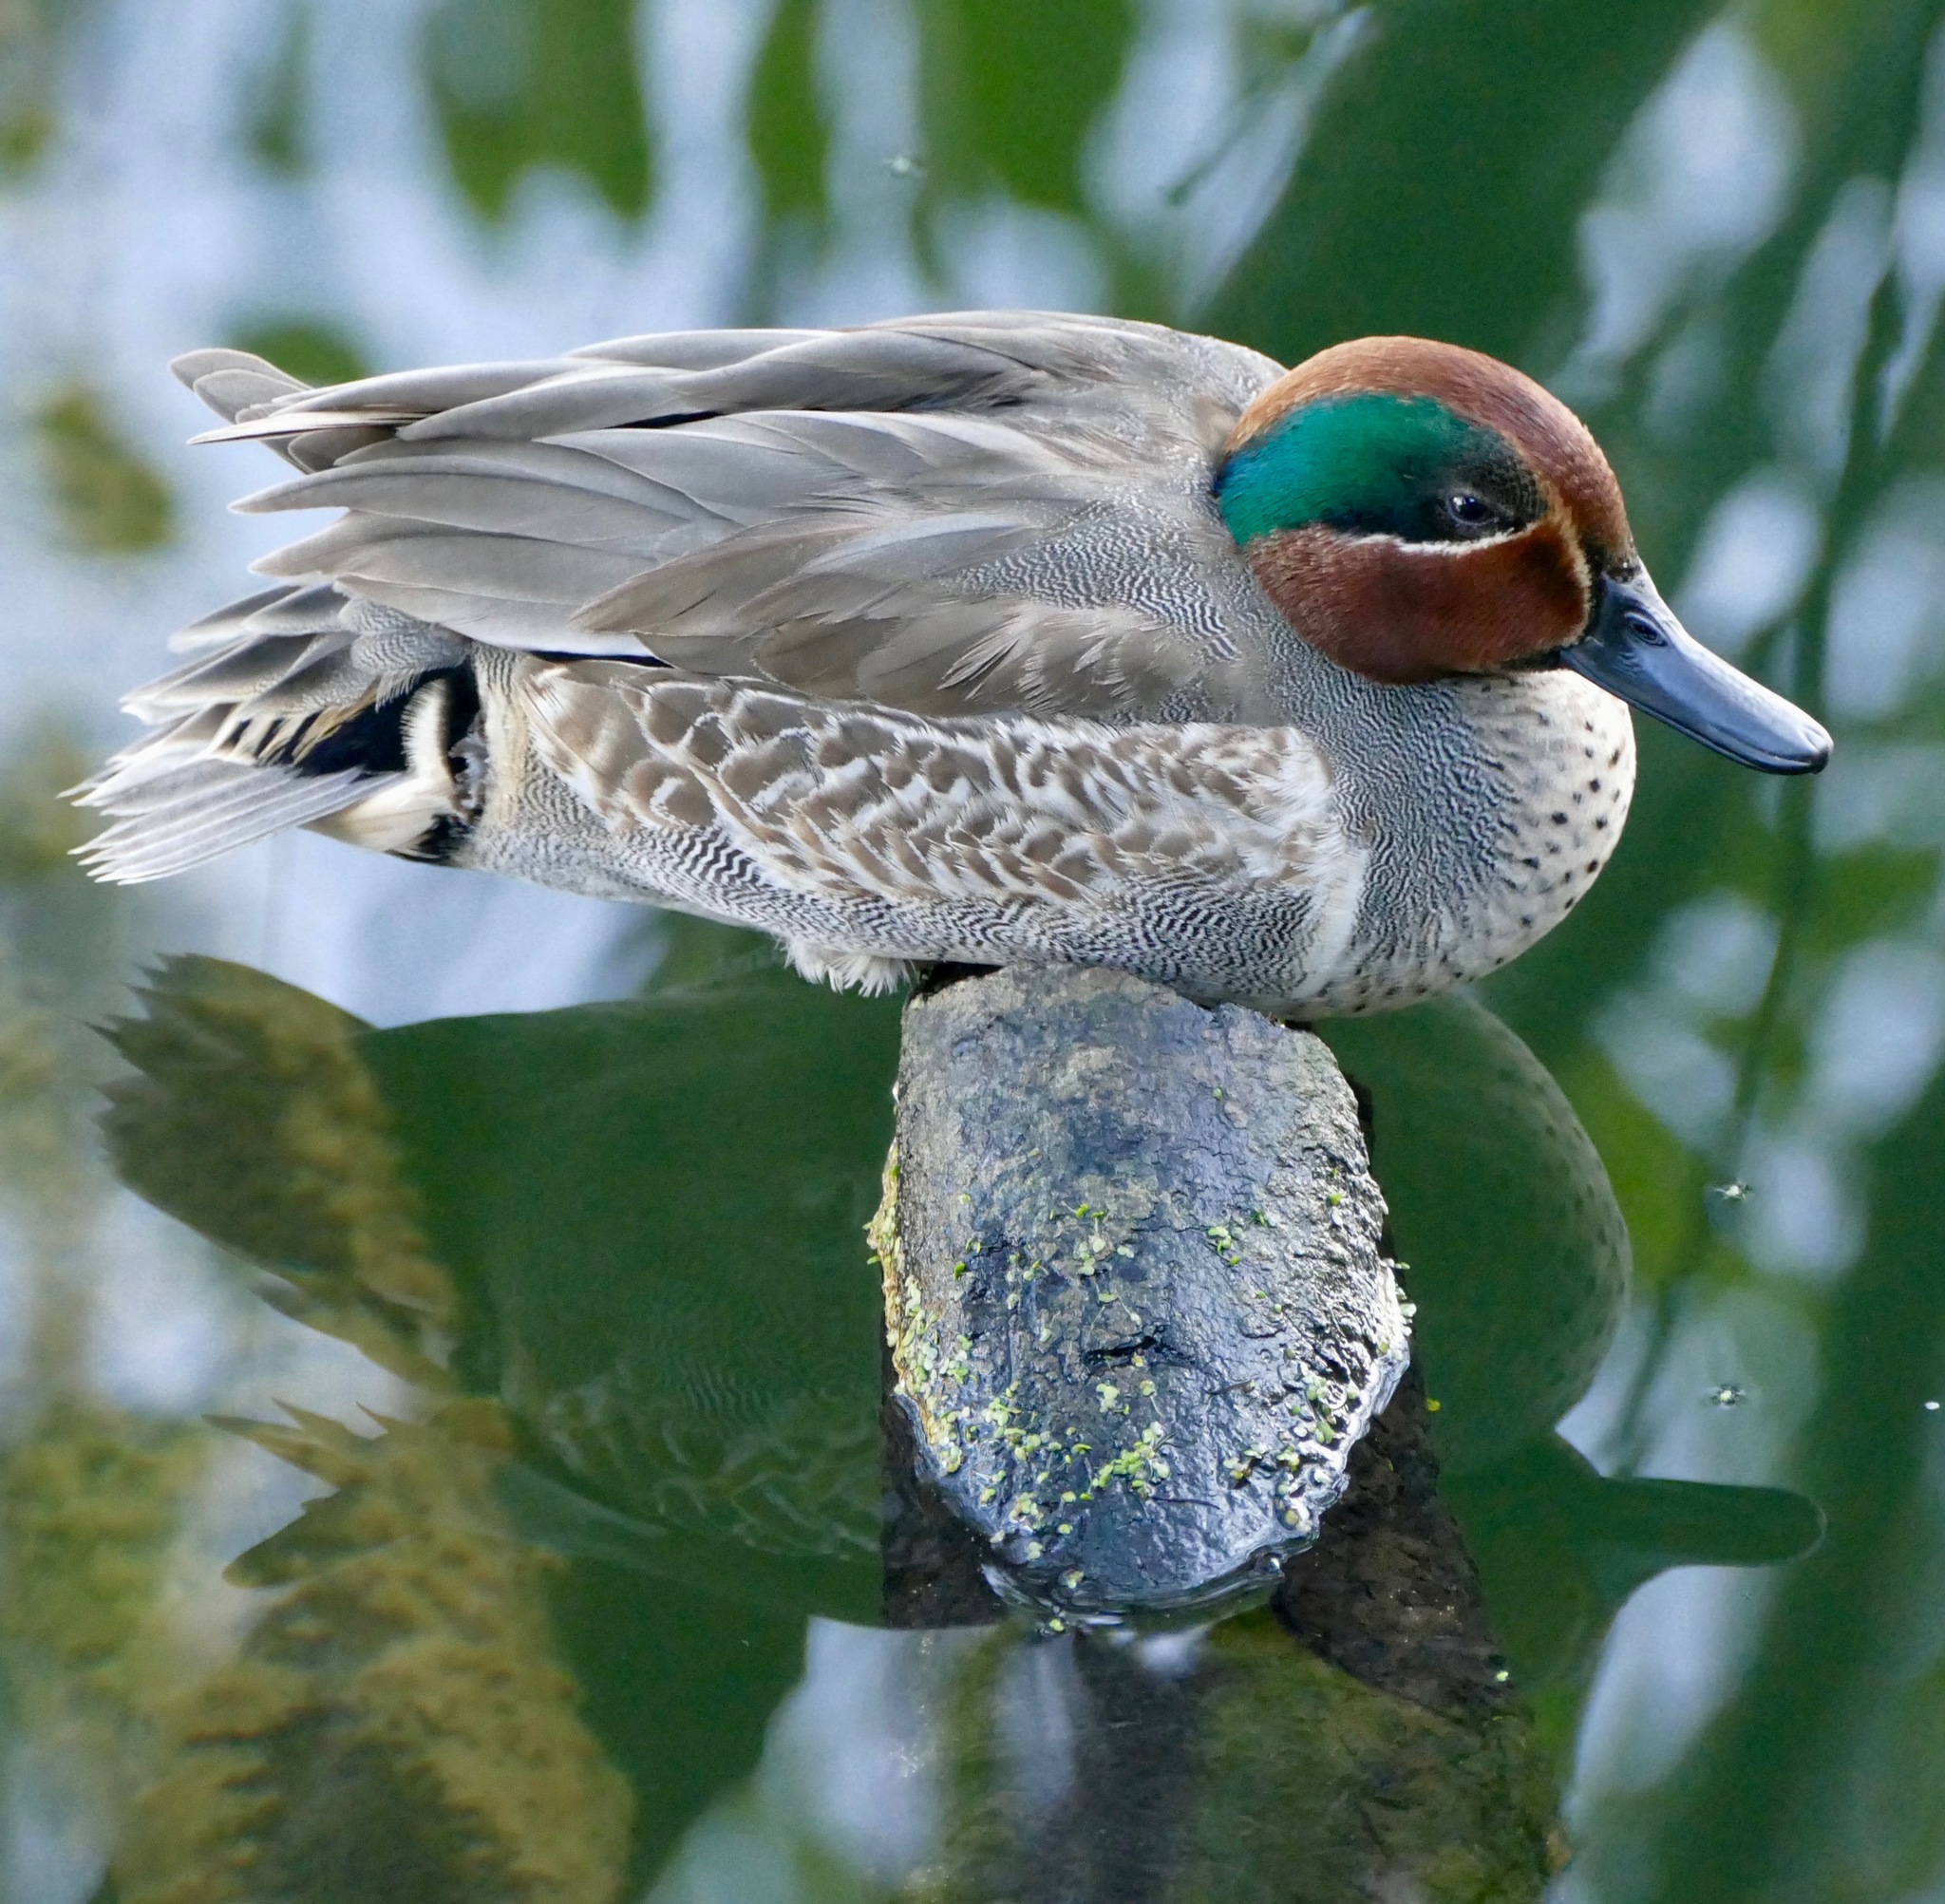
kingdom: Animalia
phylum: Chordata
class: Aves
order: Anseriformes
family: Anatidae
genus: Anas
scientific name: Anas crecca
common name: Eurasian teal
